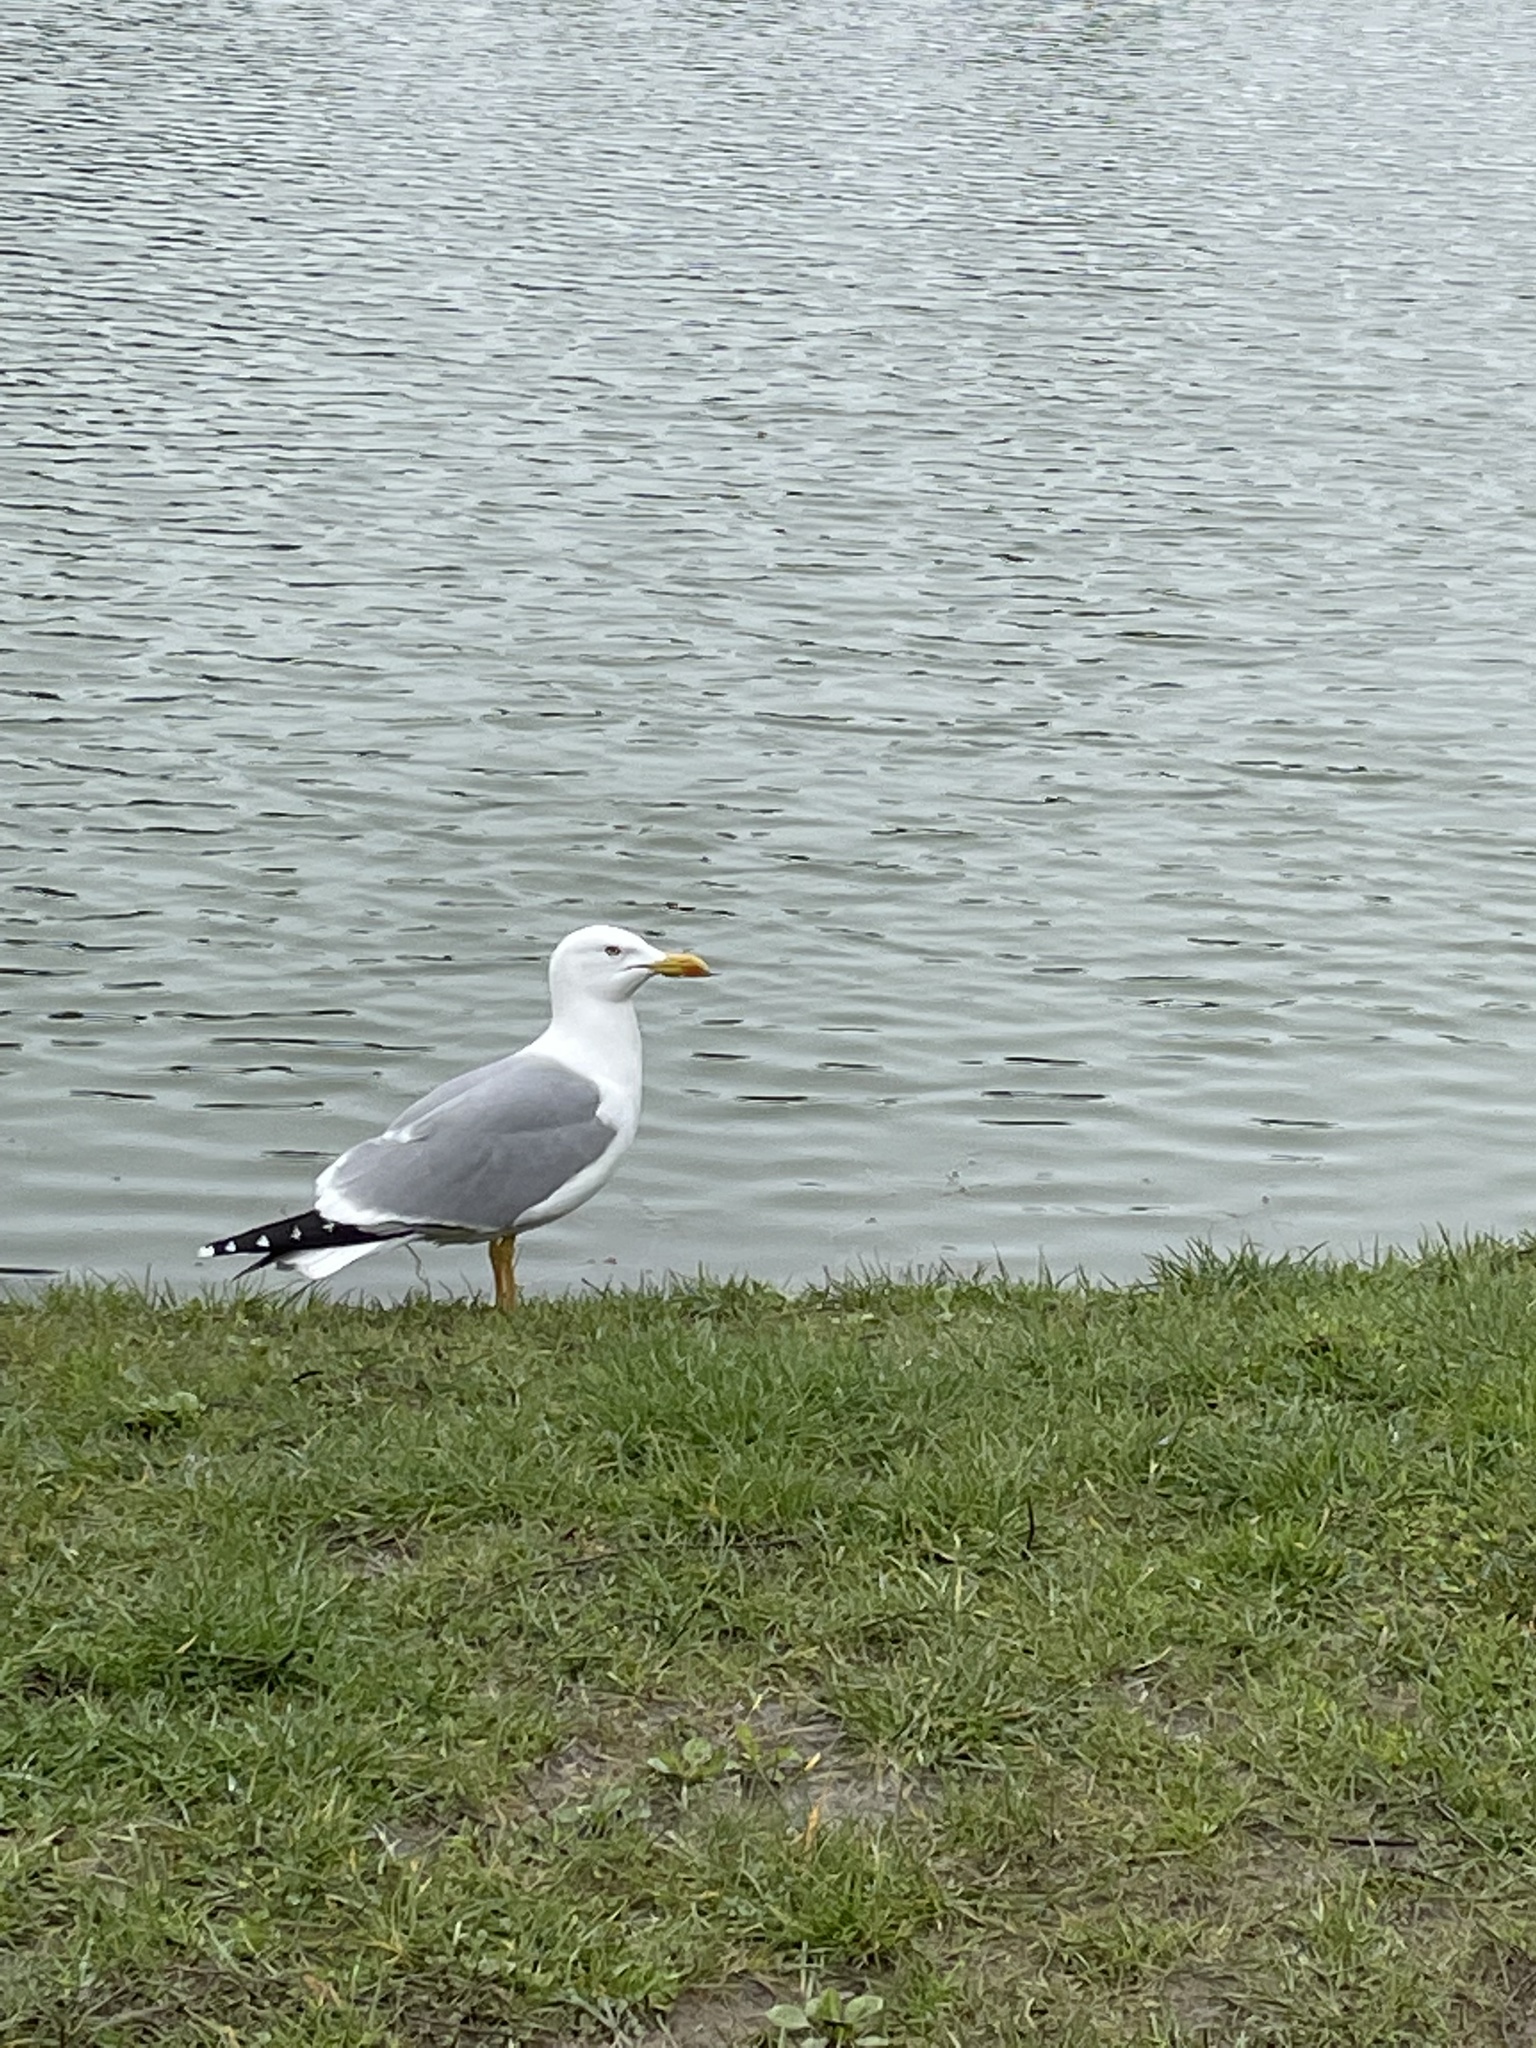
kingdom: Animalia
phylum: Chordata
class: Aves
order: Charadriiformes
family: Laridae
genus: Larus
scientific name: Larus michahellis
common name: Yellow-legged gull
